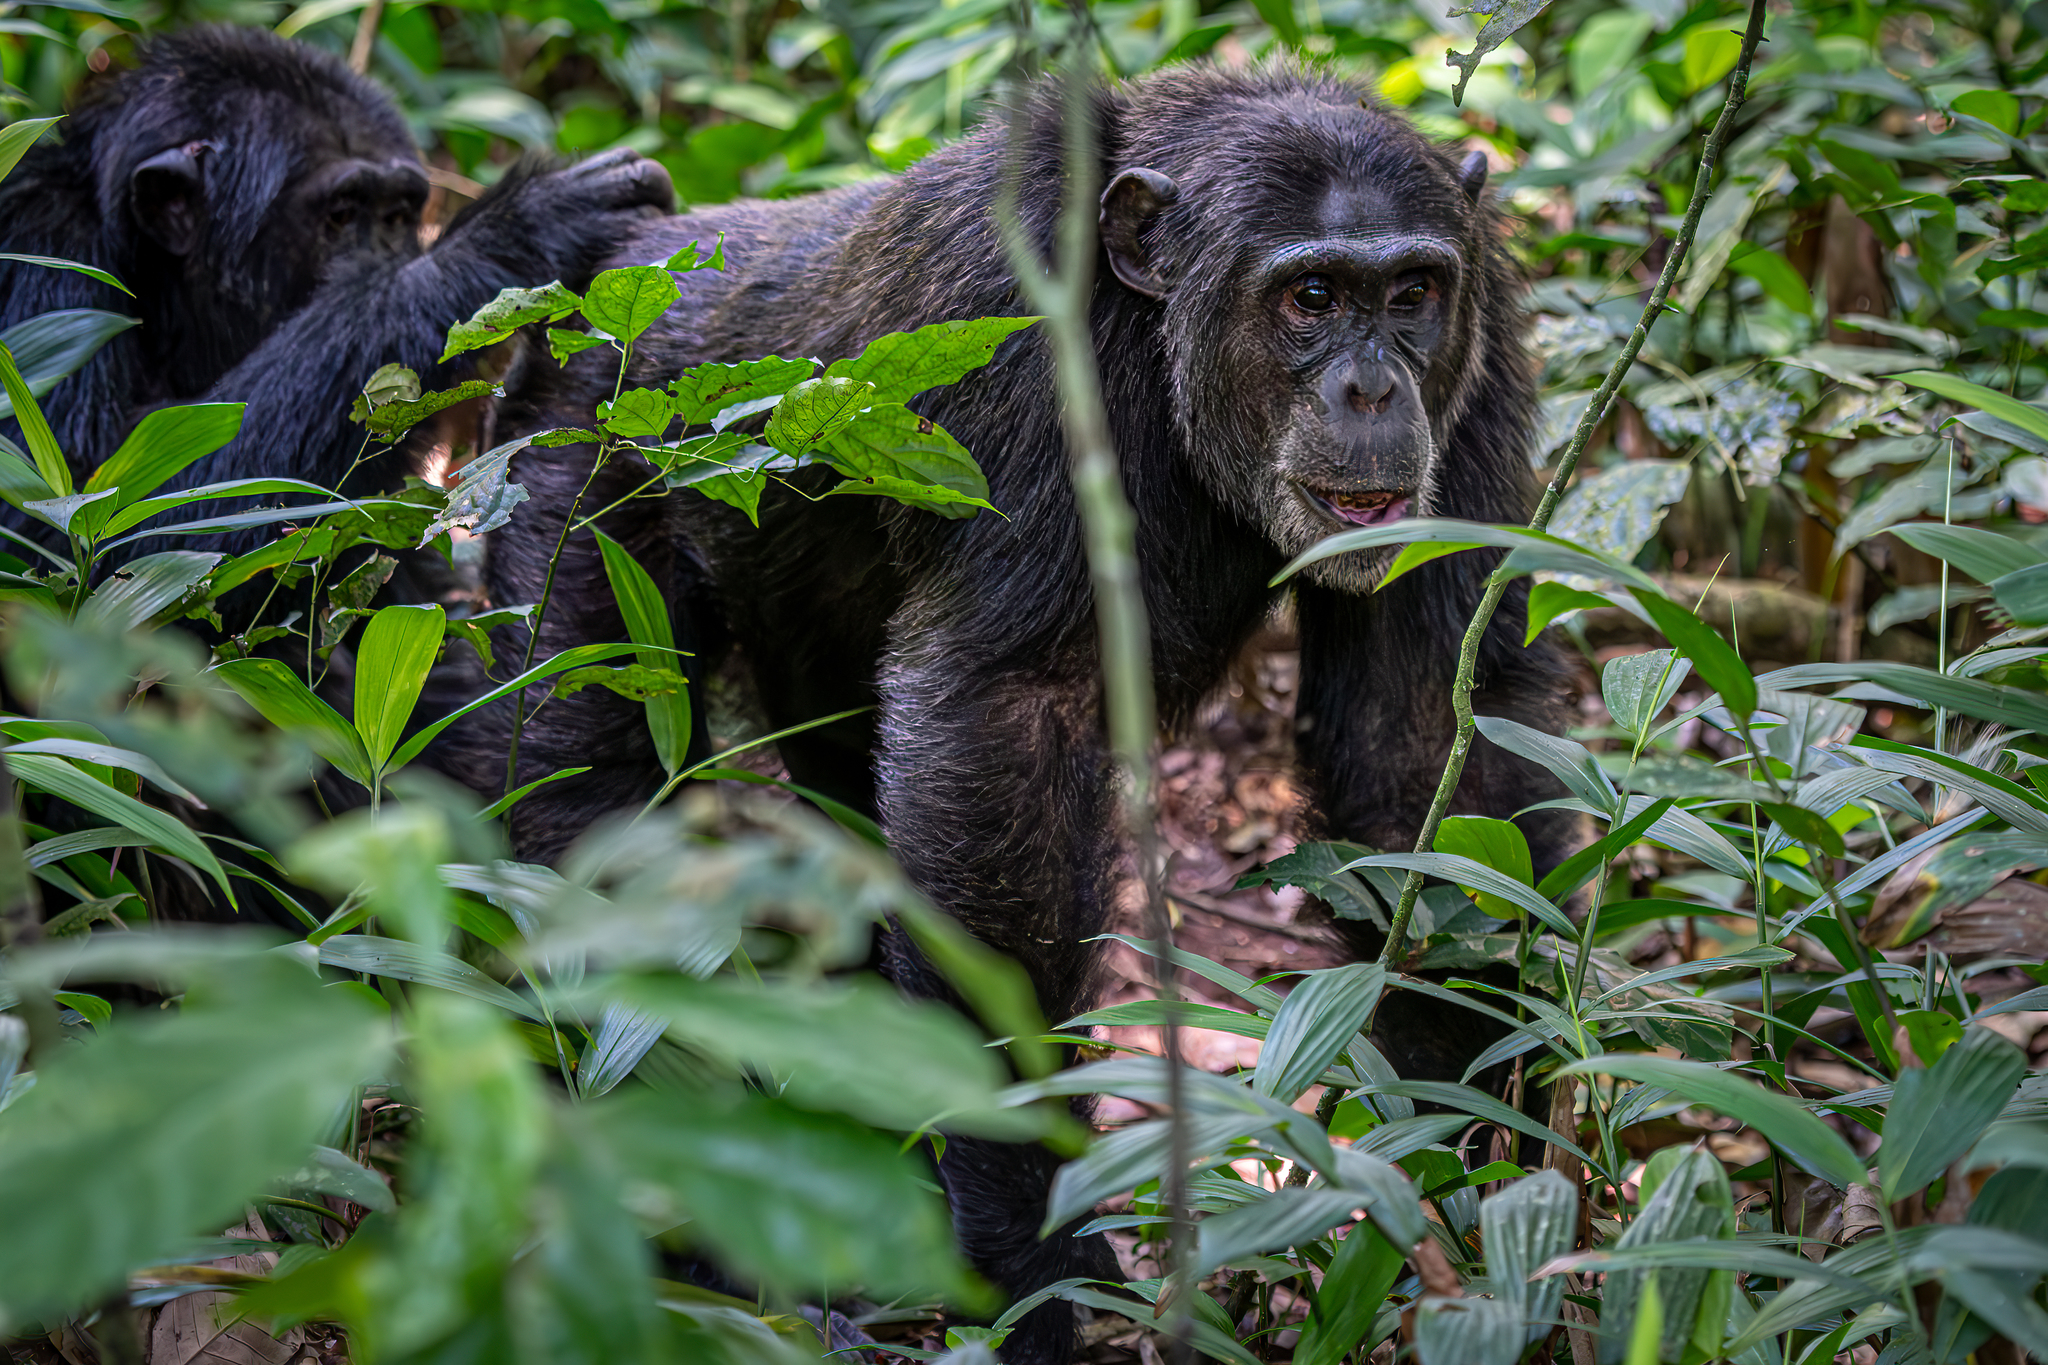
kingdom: Animalia
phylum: Chordata
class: Mammalia
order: Primates
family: Hominidae
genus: Pan
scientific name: Pan troglodytes
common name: Chimpanzee
